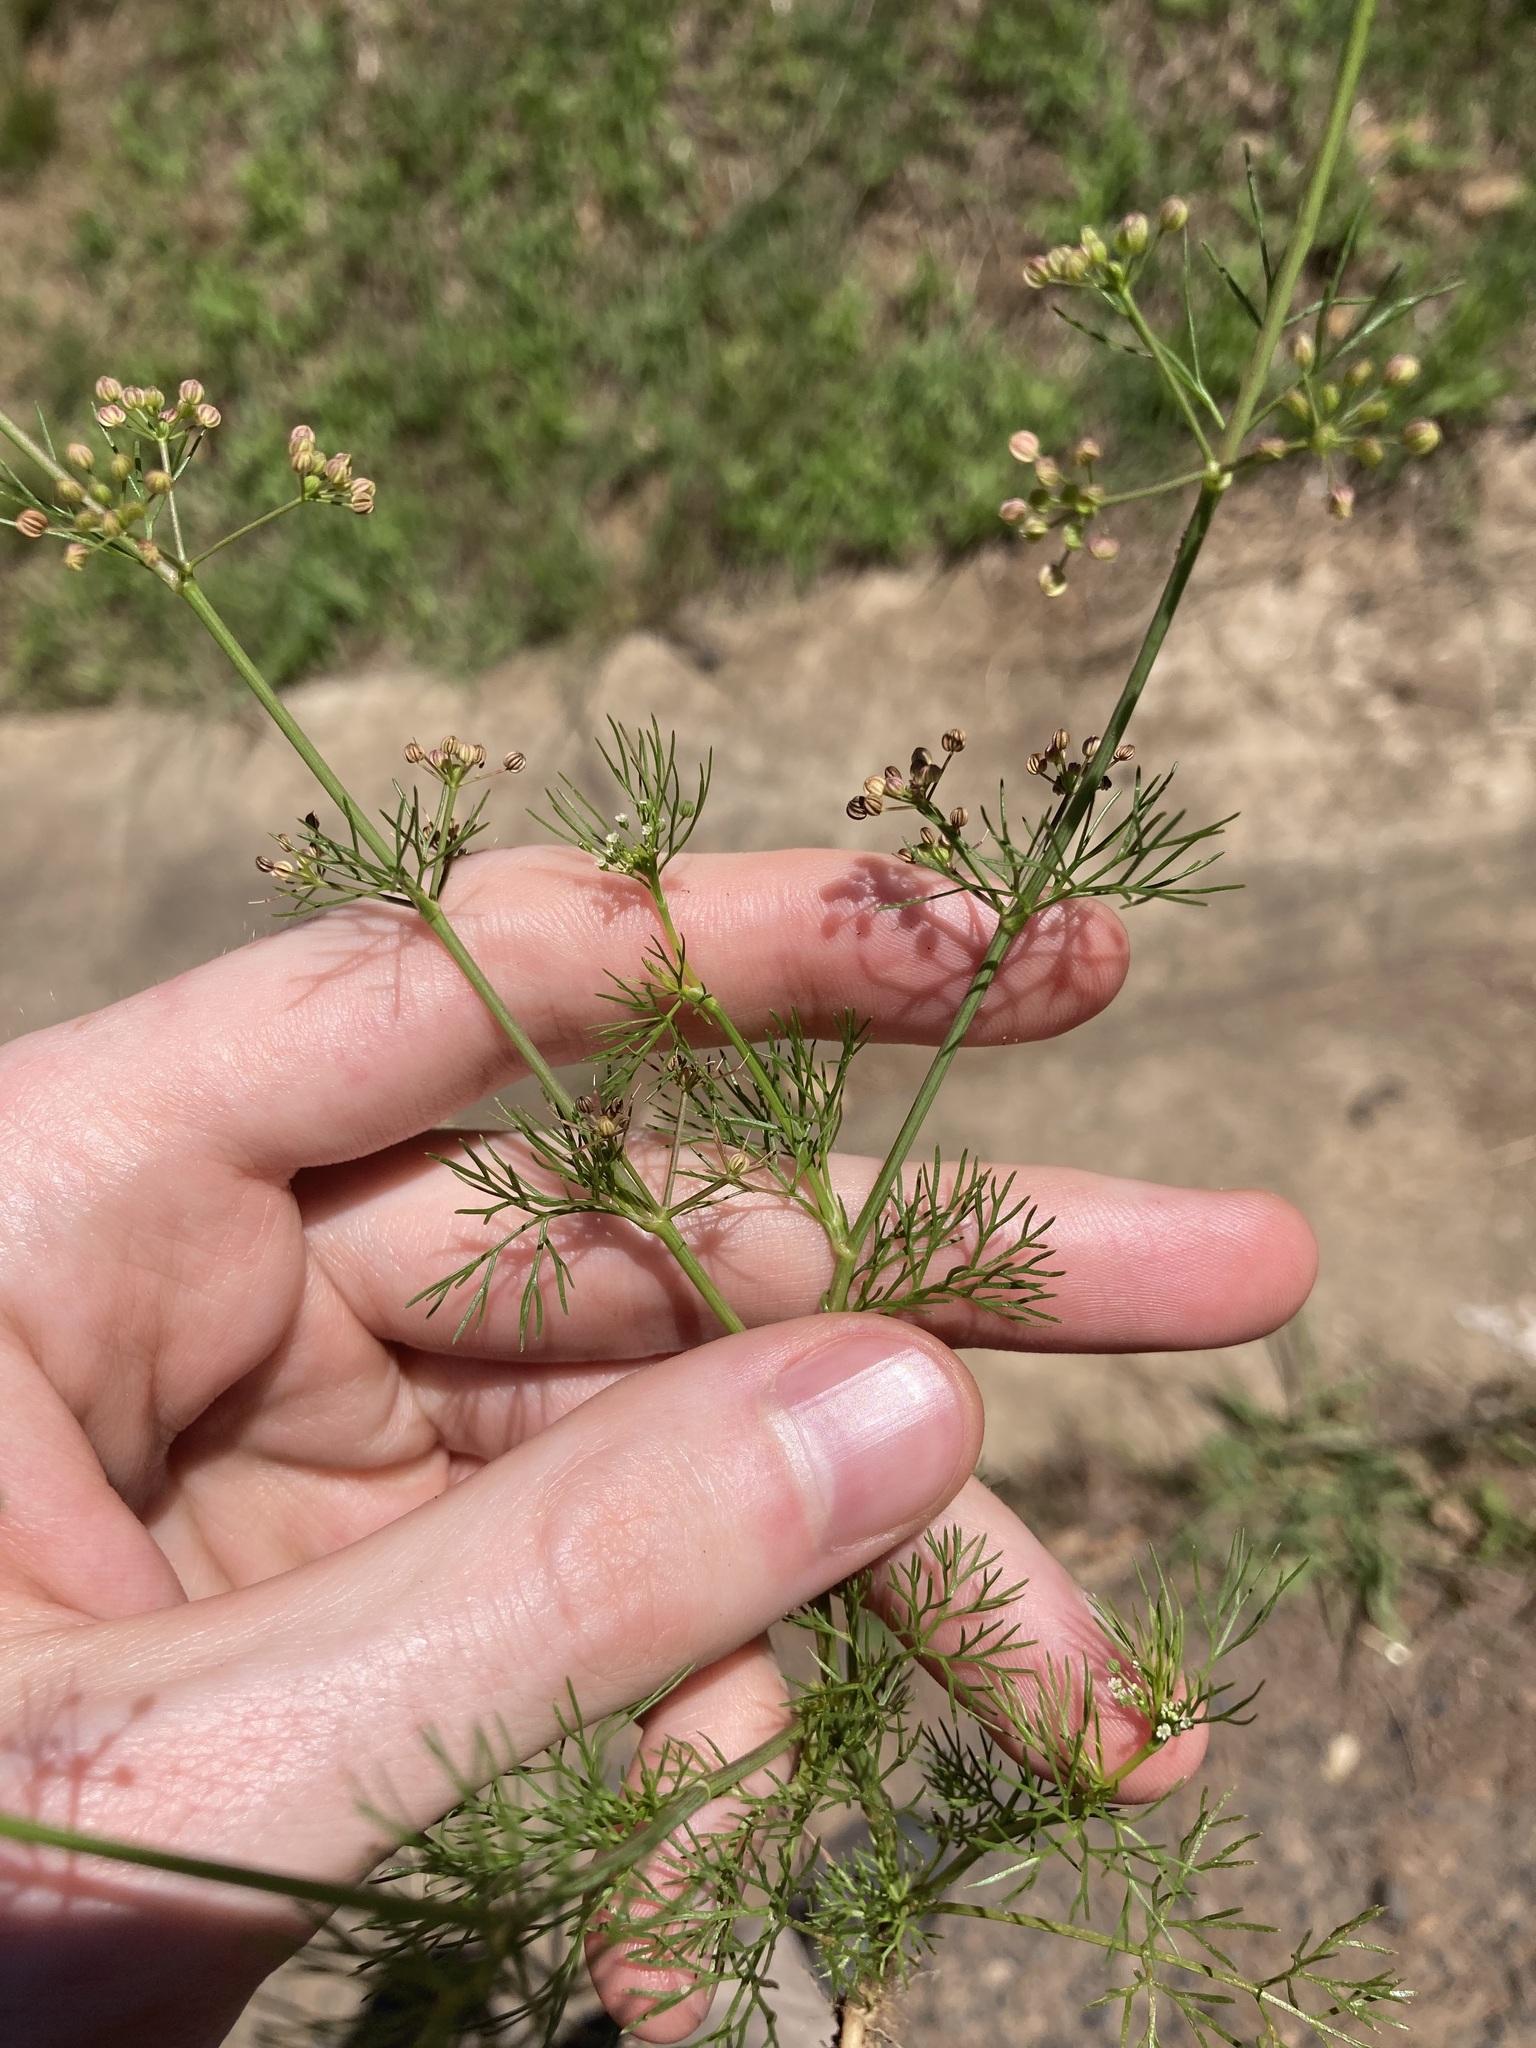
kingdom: Plantae
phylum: Tracheophyta
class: Magnoliopsida
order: Apiales
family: Apiaceae
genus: Cyclospermum
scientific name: Cyclospermum leptophyllum
